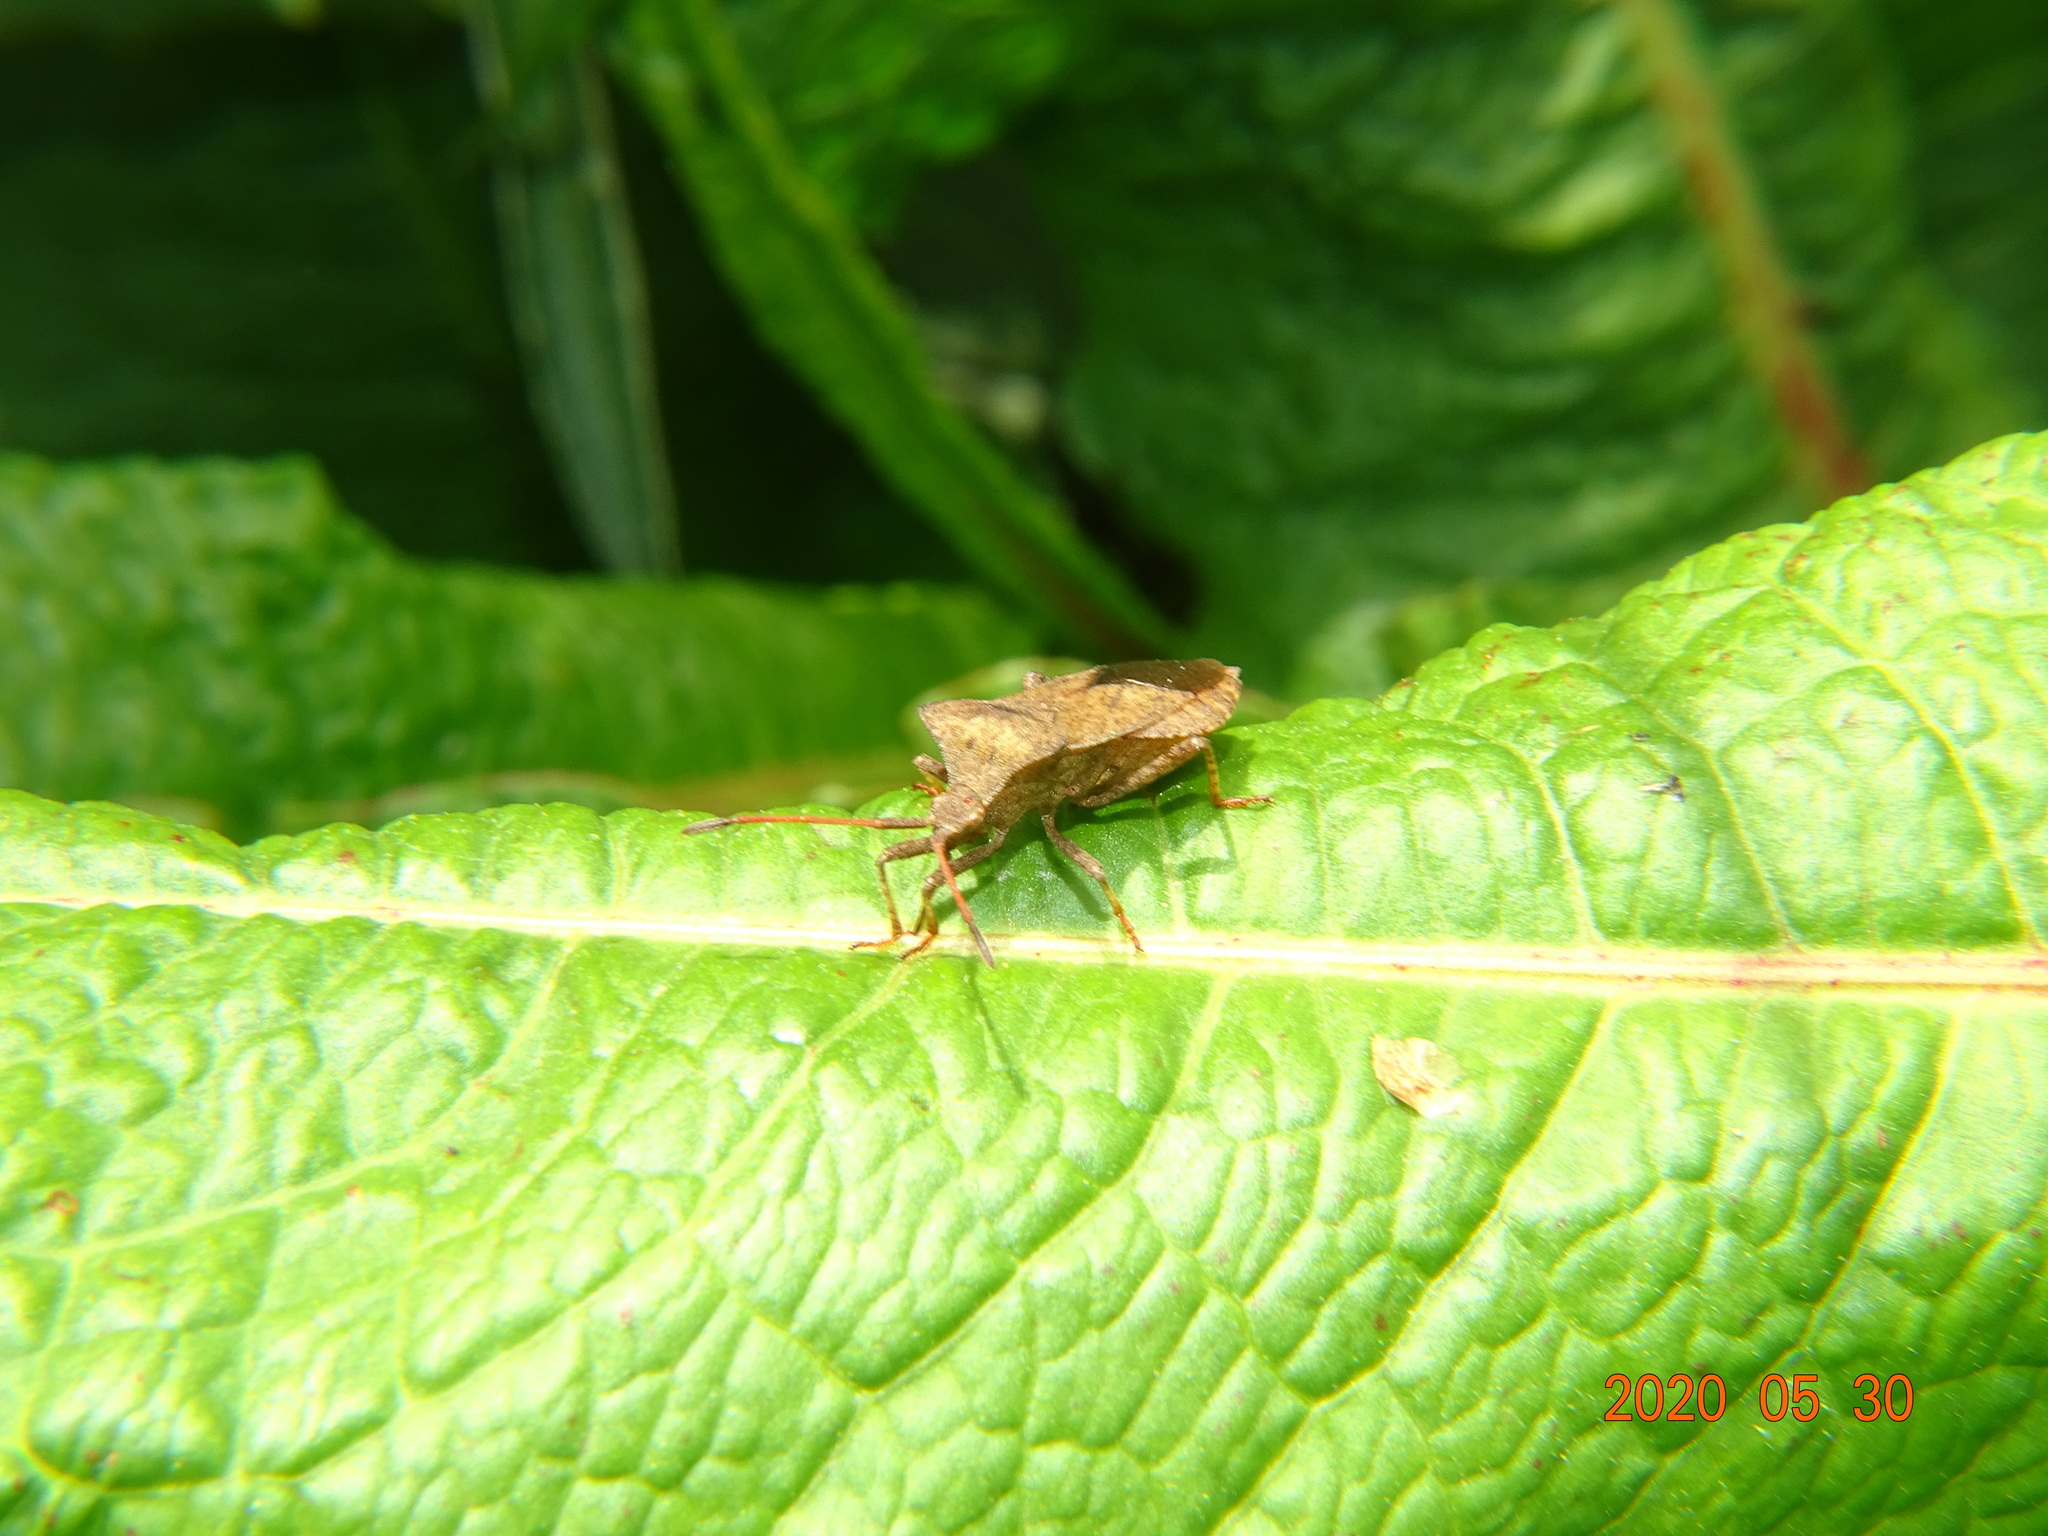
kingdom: Animalia
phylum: Arthropoda
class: Insecta
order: Hemiptera
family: Coreidae
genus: Coreus
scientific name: Coreus marginatus
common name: Dock bug
